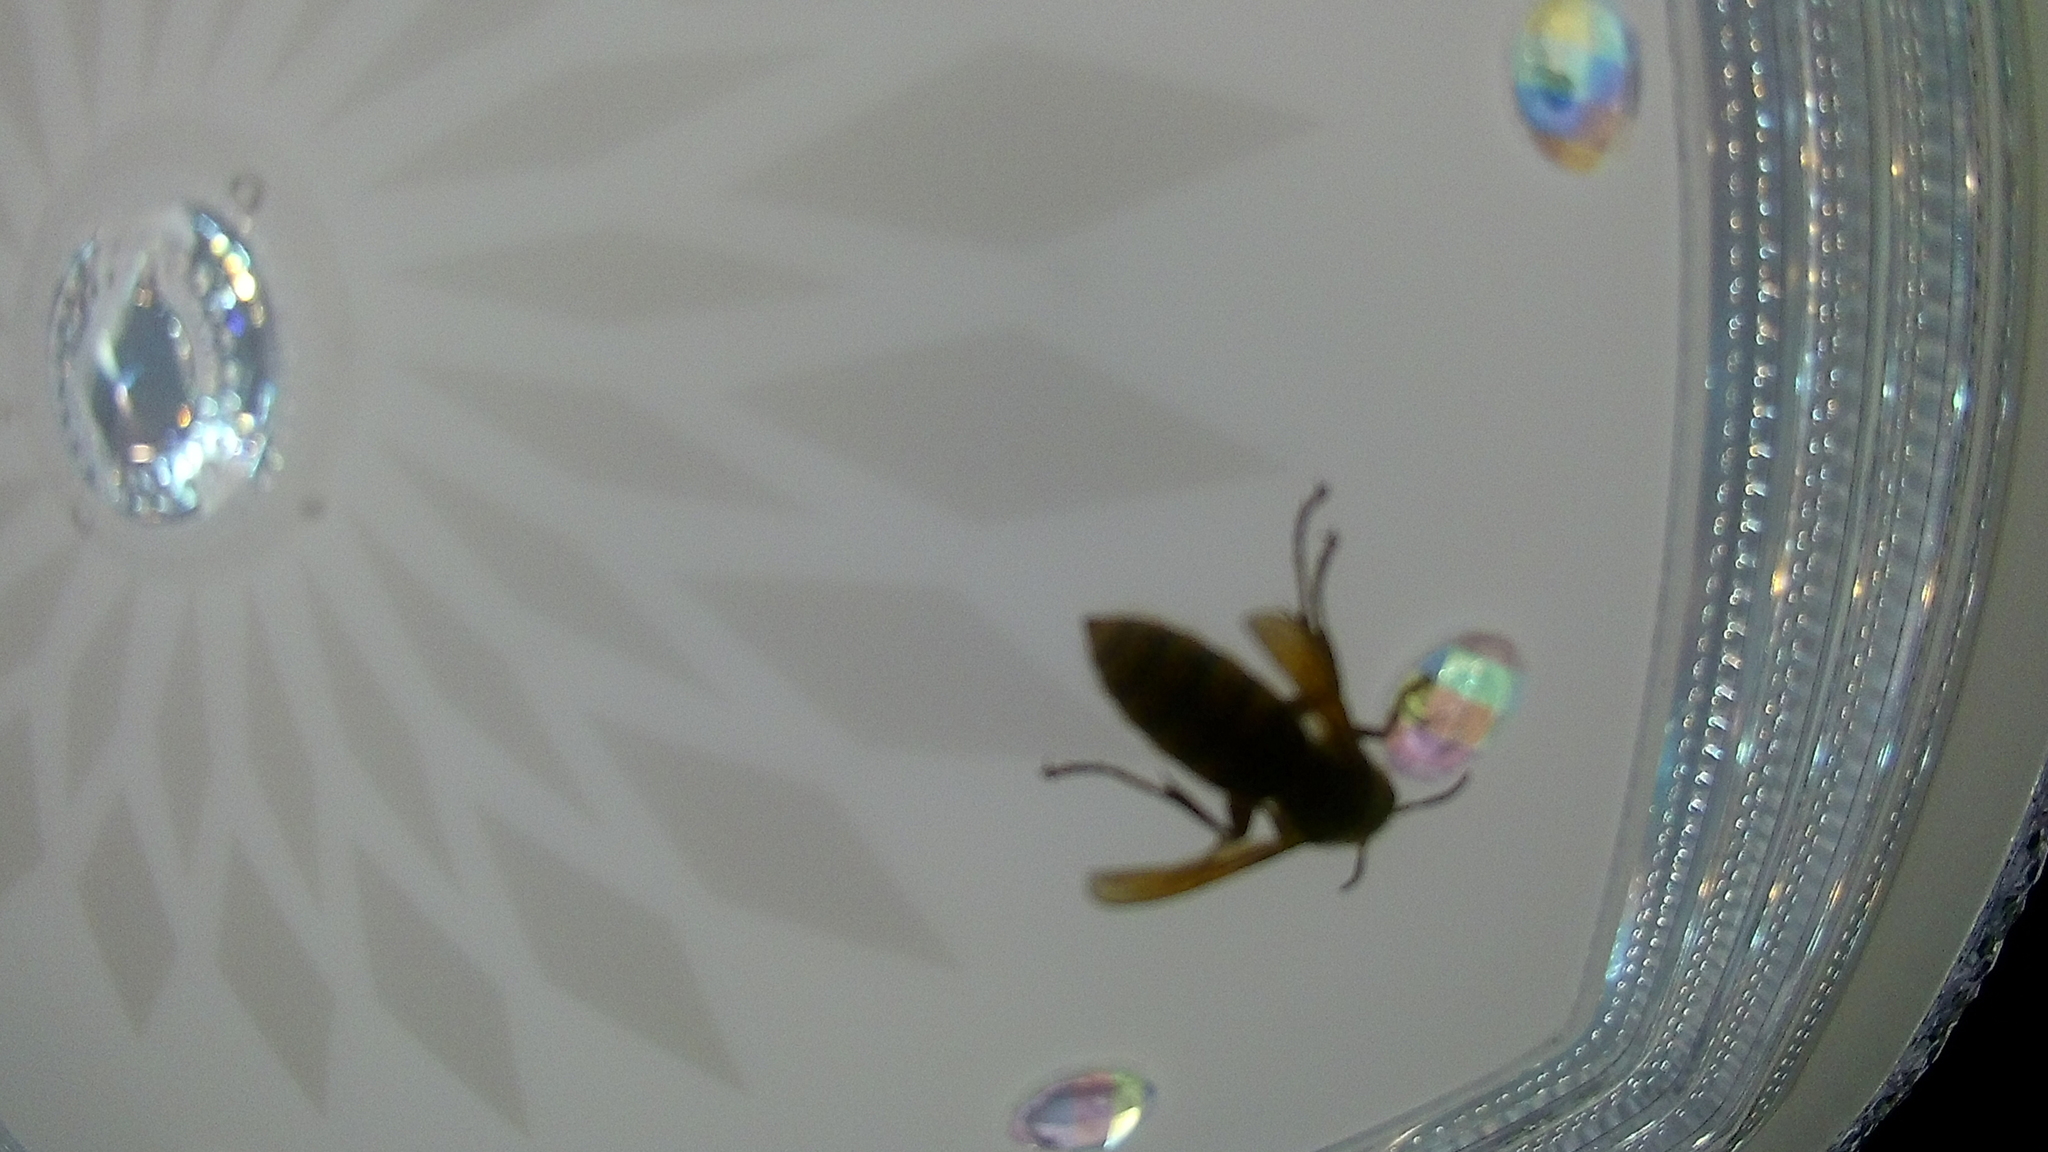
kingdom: Animalia
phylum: Arthropoda
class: Insecta
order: Hymenoptera
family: Vespidae
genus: Vespa
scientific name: Vespa crabro
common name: Hornet
